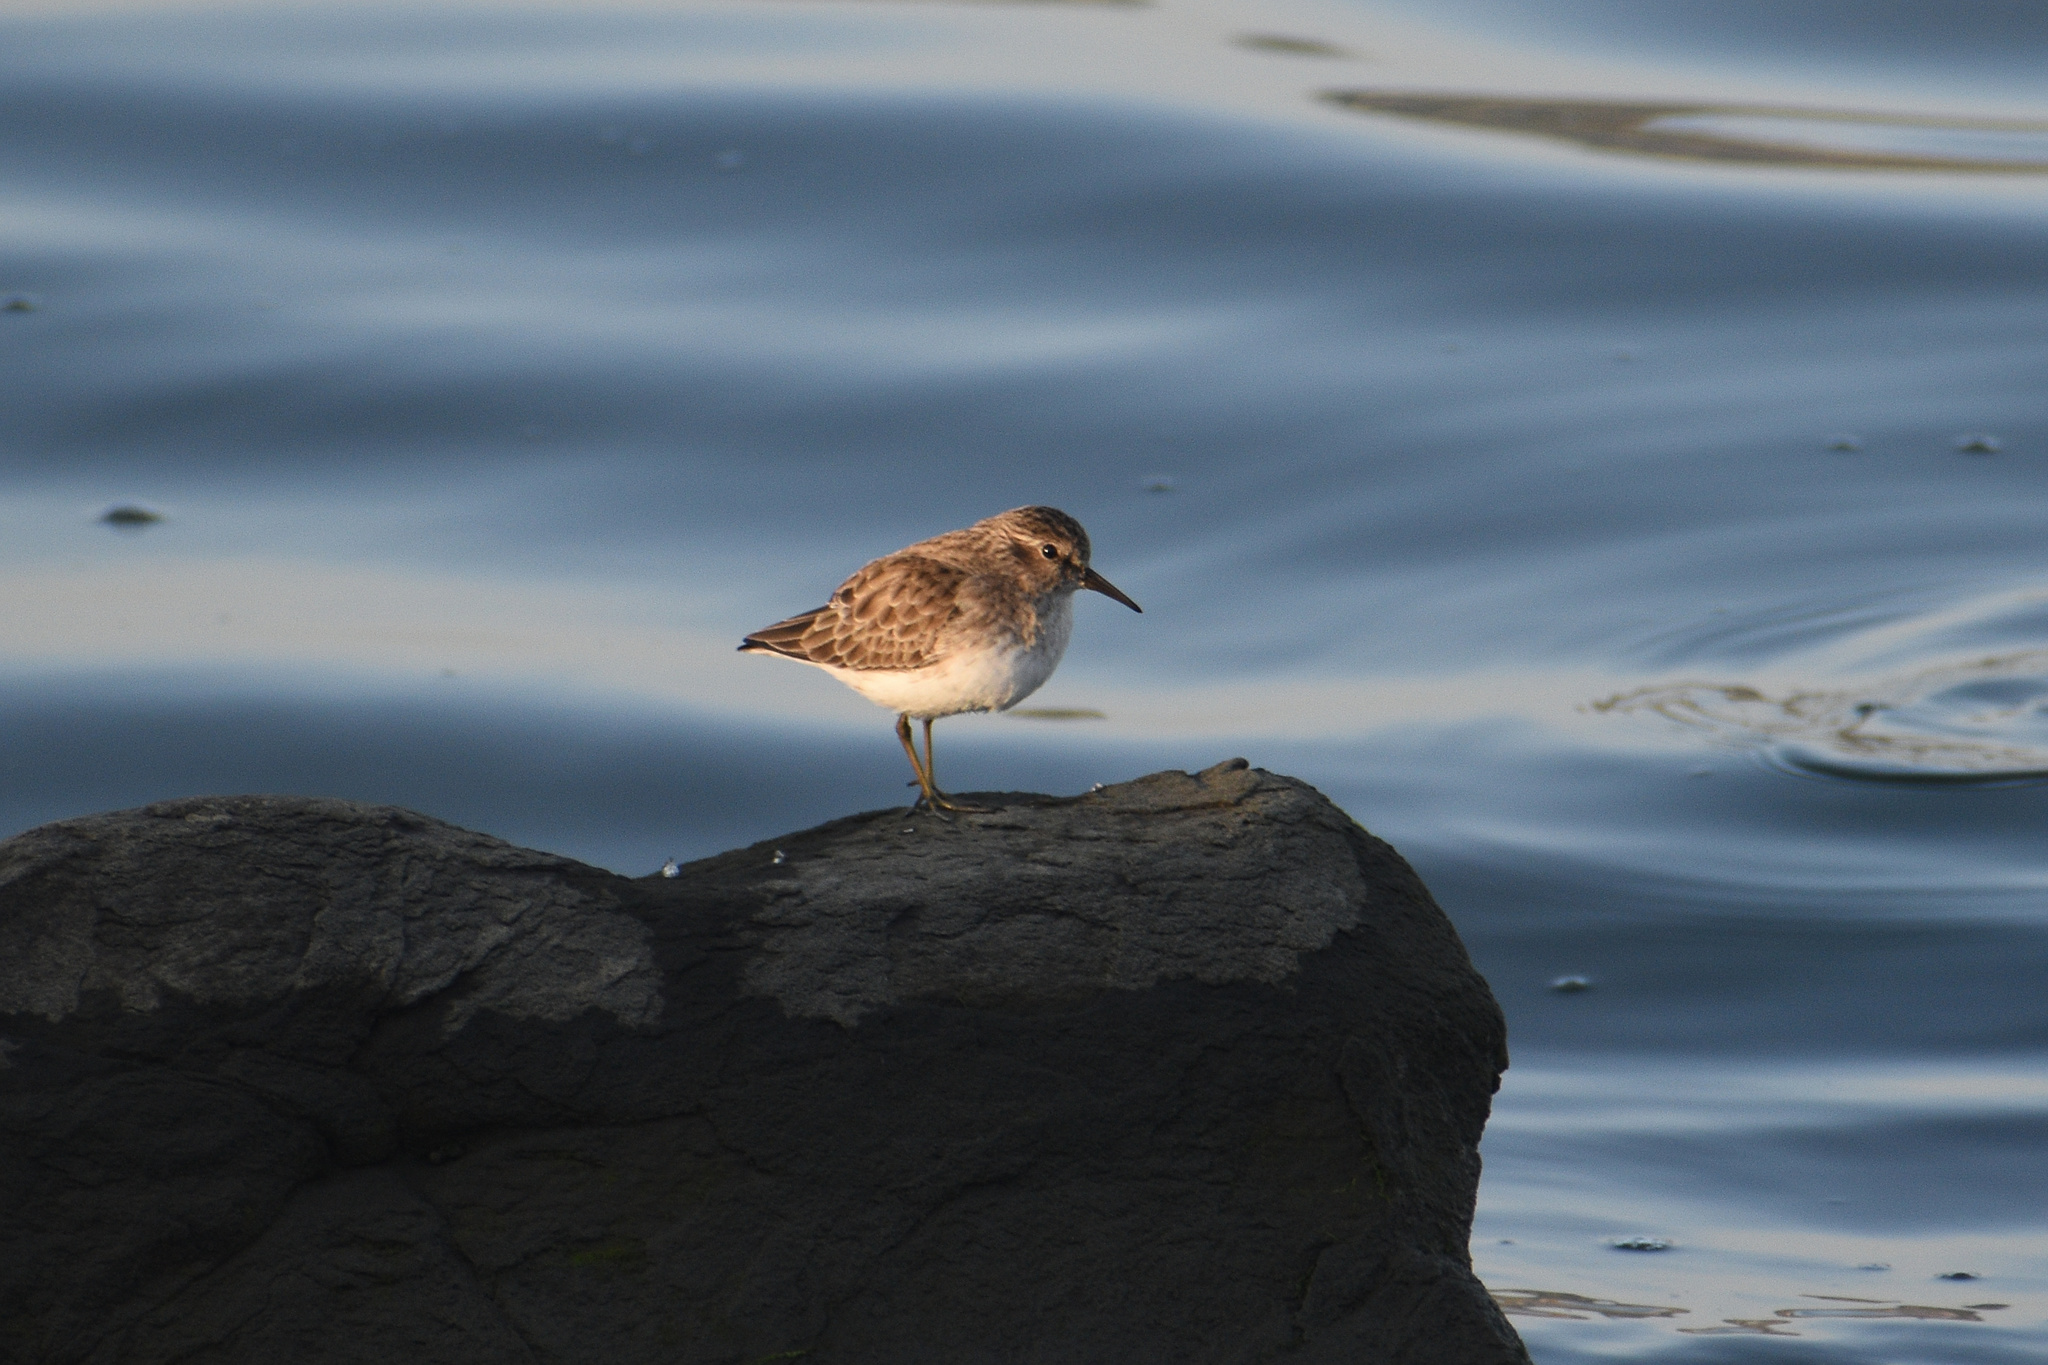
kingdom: Animalia
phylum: Chordata
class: Aves
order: Charadriiformes
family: Scolopacidae
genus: Calidris
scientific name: Calidris minutilla
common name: Least sandpiper
